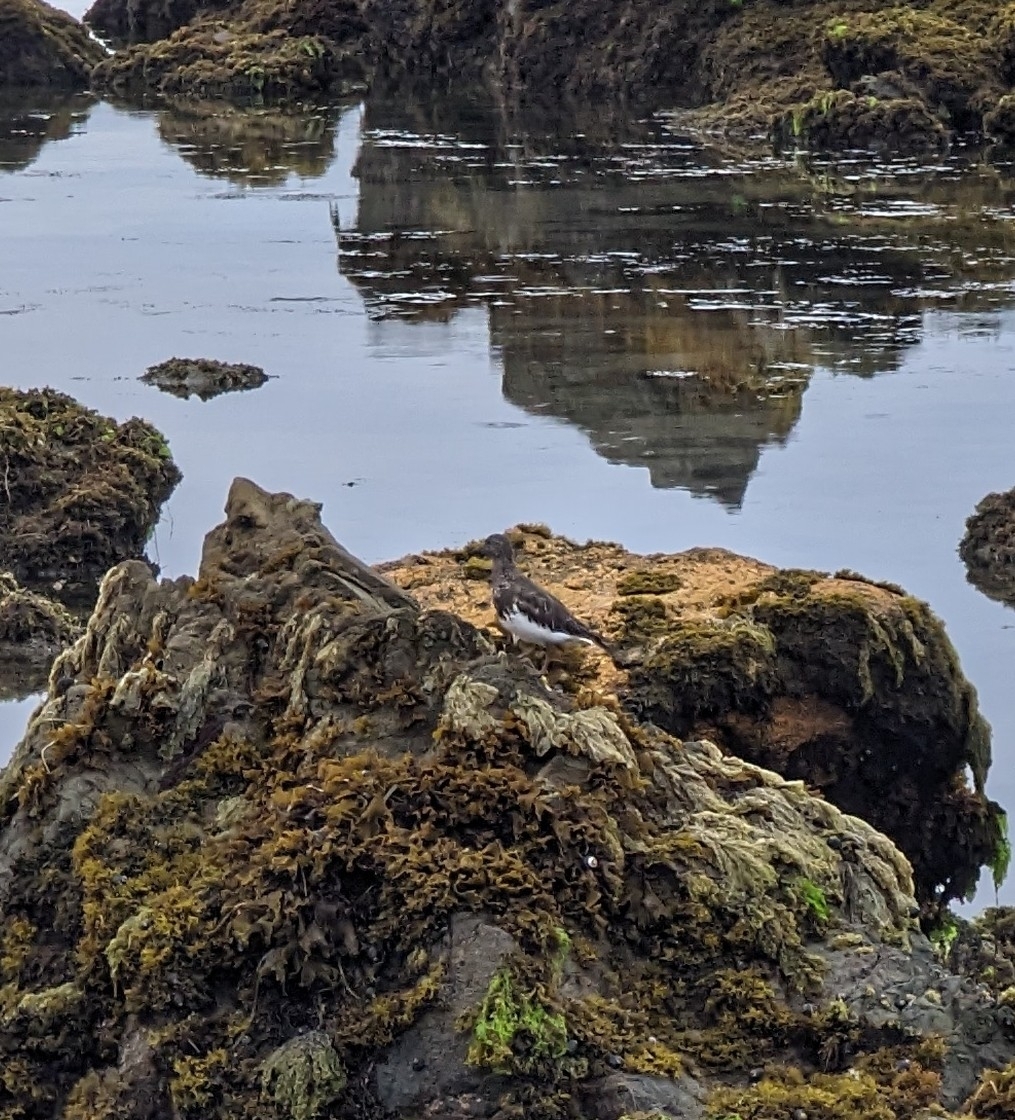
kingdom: Animalia
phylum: Chordata
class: Aves
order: Charadriiformes
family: Scolopacidae
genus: Arenaria
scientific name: Arenaria melanocephala
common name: Black turnstone
